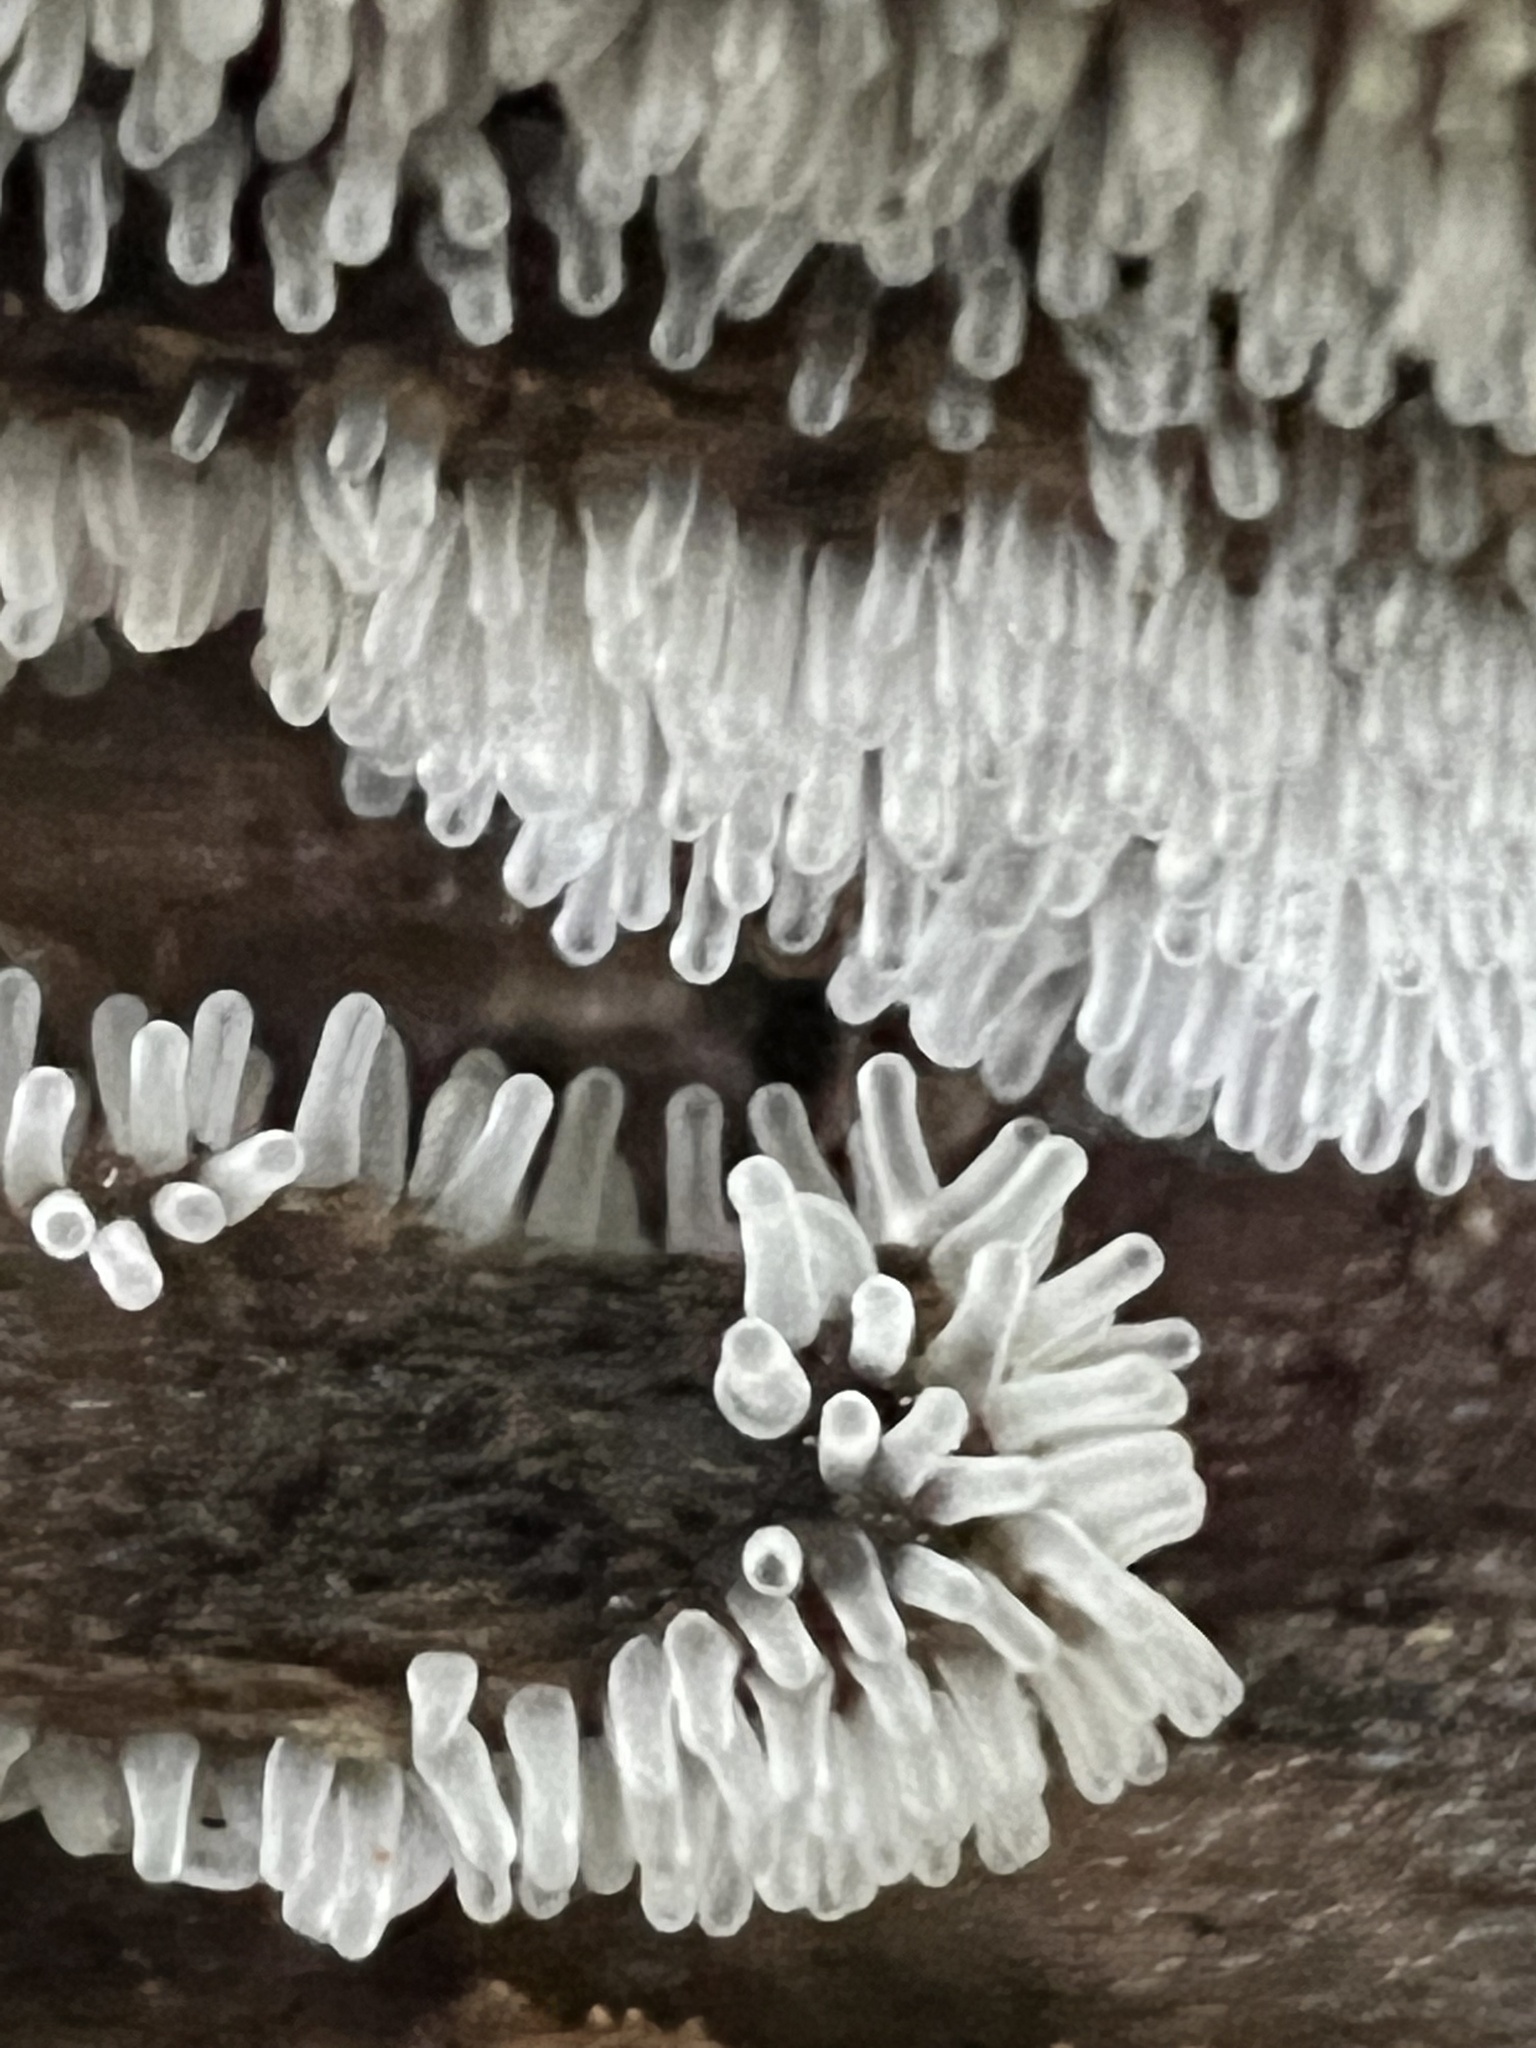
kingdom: Protozoa
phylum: Mycetozoa
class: Protosteliomycetes
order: Ceratiomyxales
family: Ceratiomyxaceae
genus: Ceratiomyxa
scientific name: Ceratiomyxa fruticulosa
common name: Honeycomb coral slime mold
